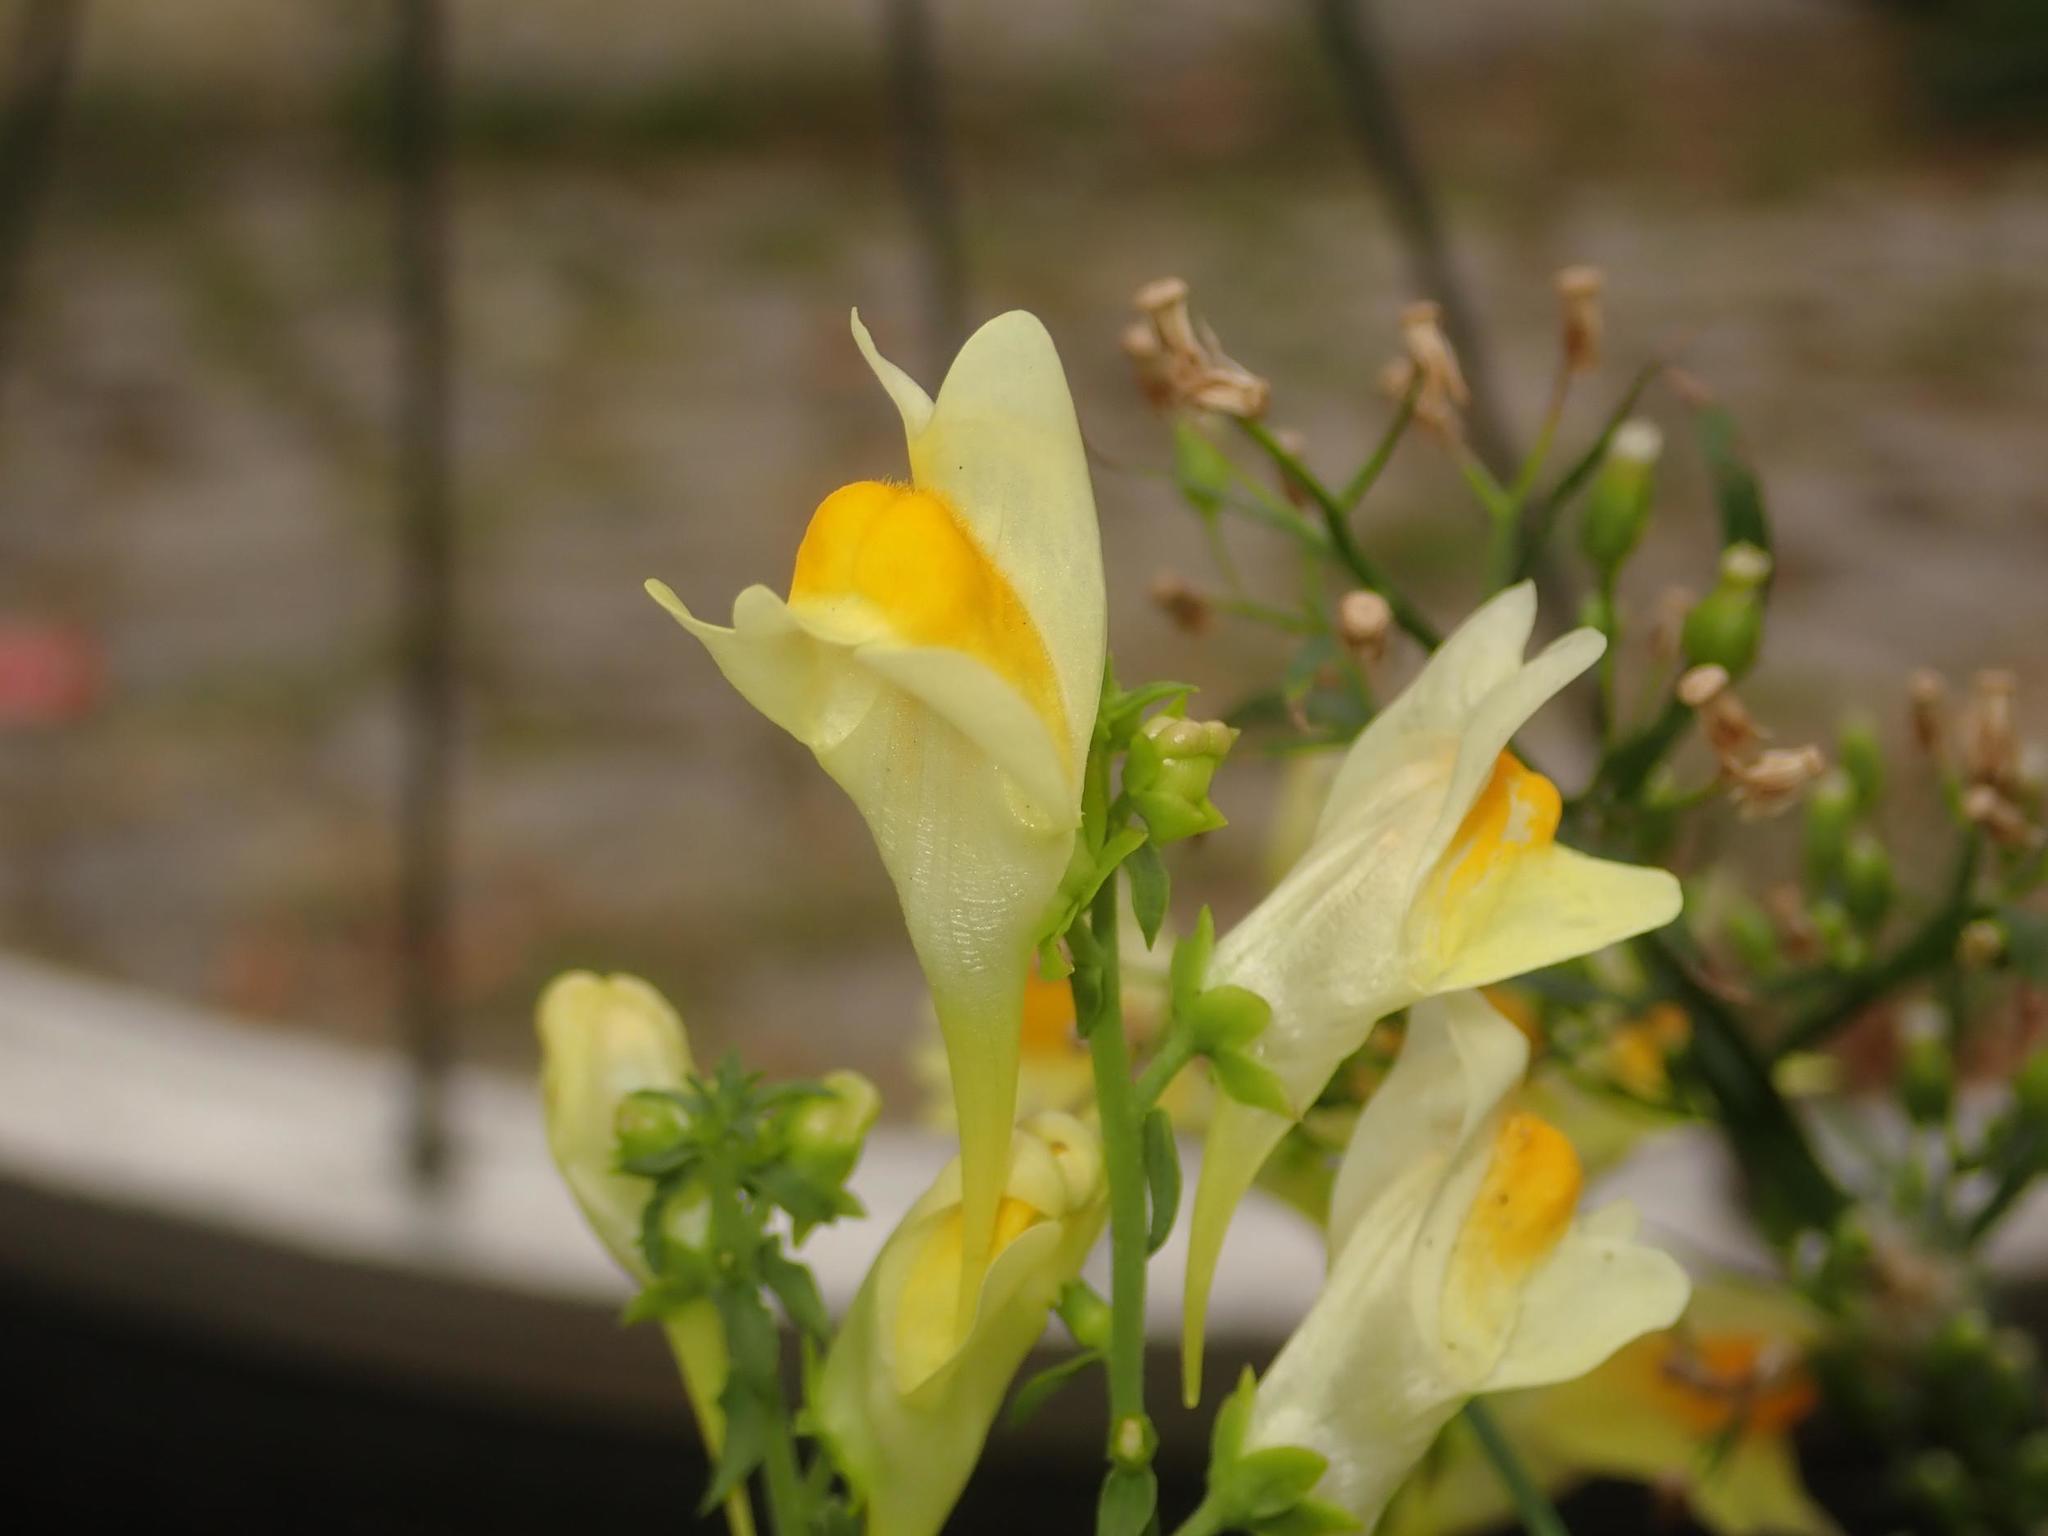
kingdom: Plantae
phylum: Tracheophyta
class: Magnoliopsida
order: Lamiales
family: Plantaginaceae
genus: Linaria
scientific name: Linaria vulgaris
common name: Butter and eggs
